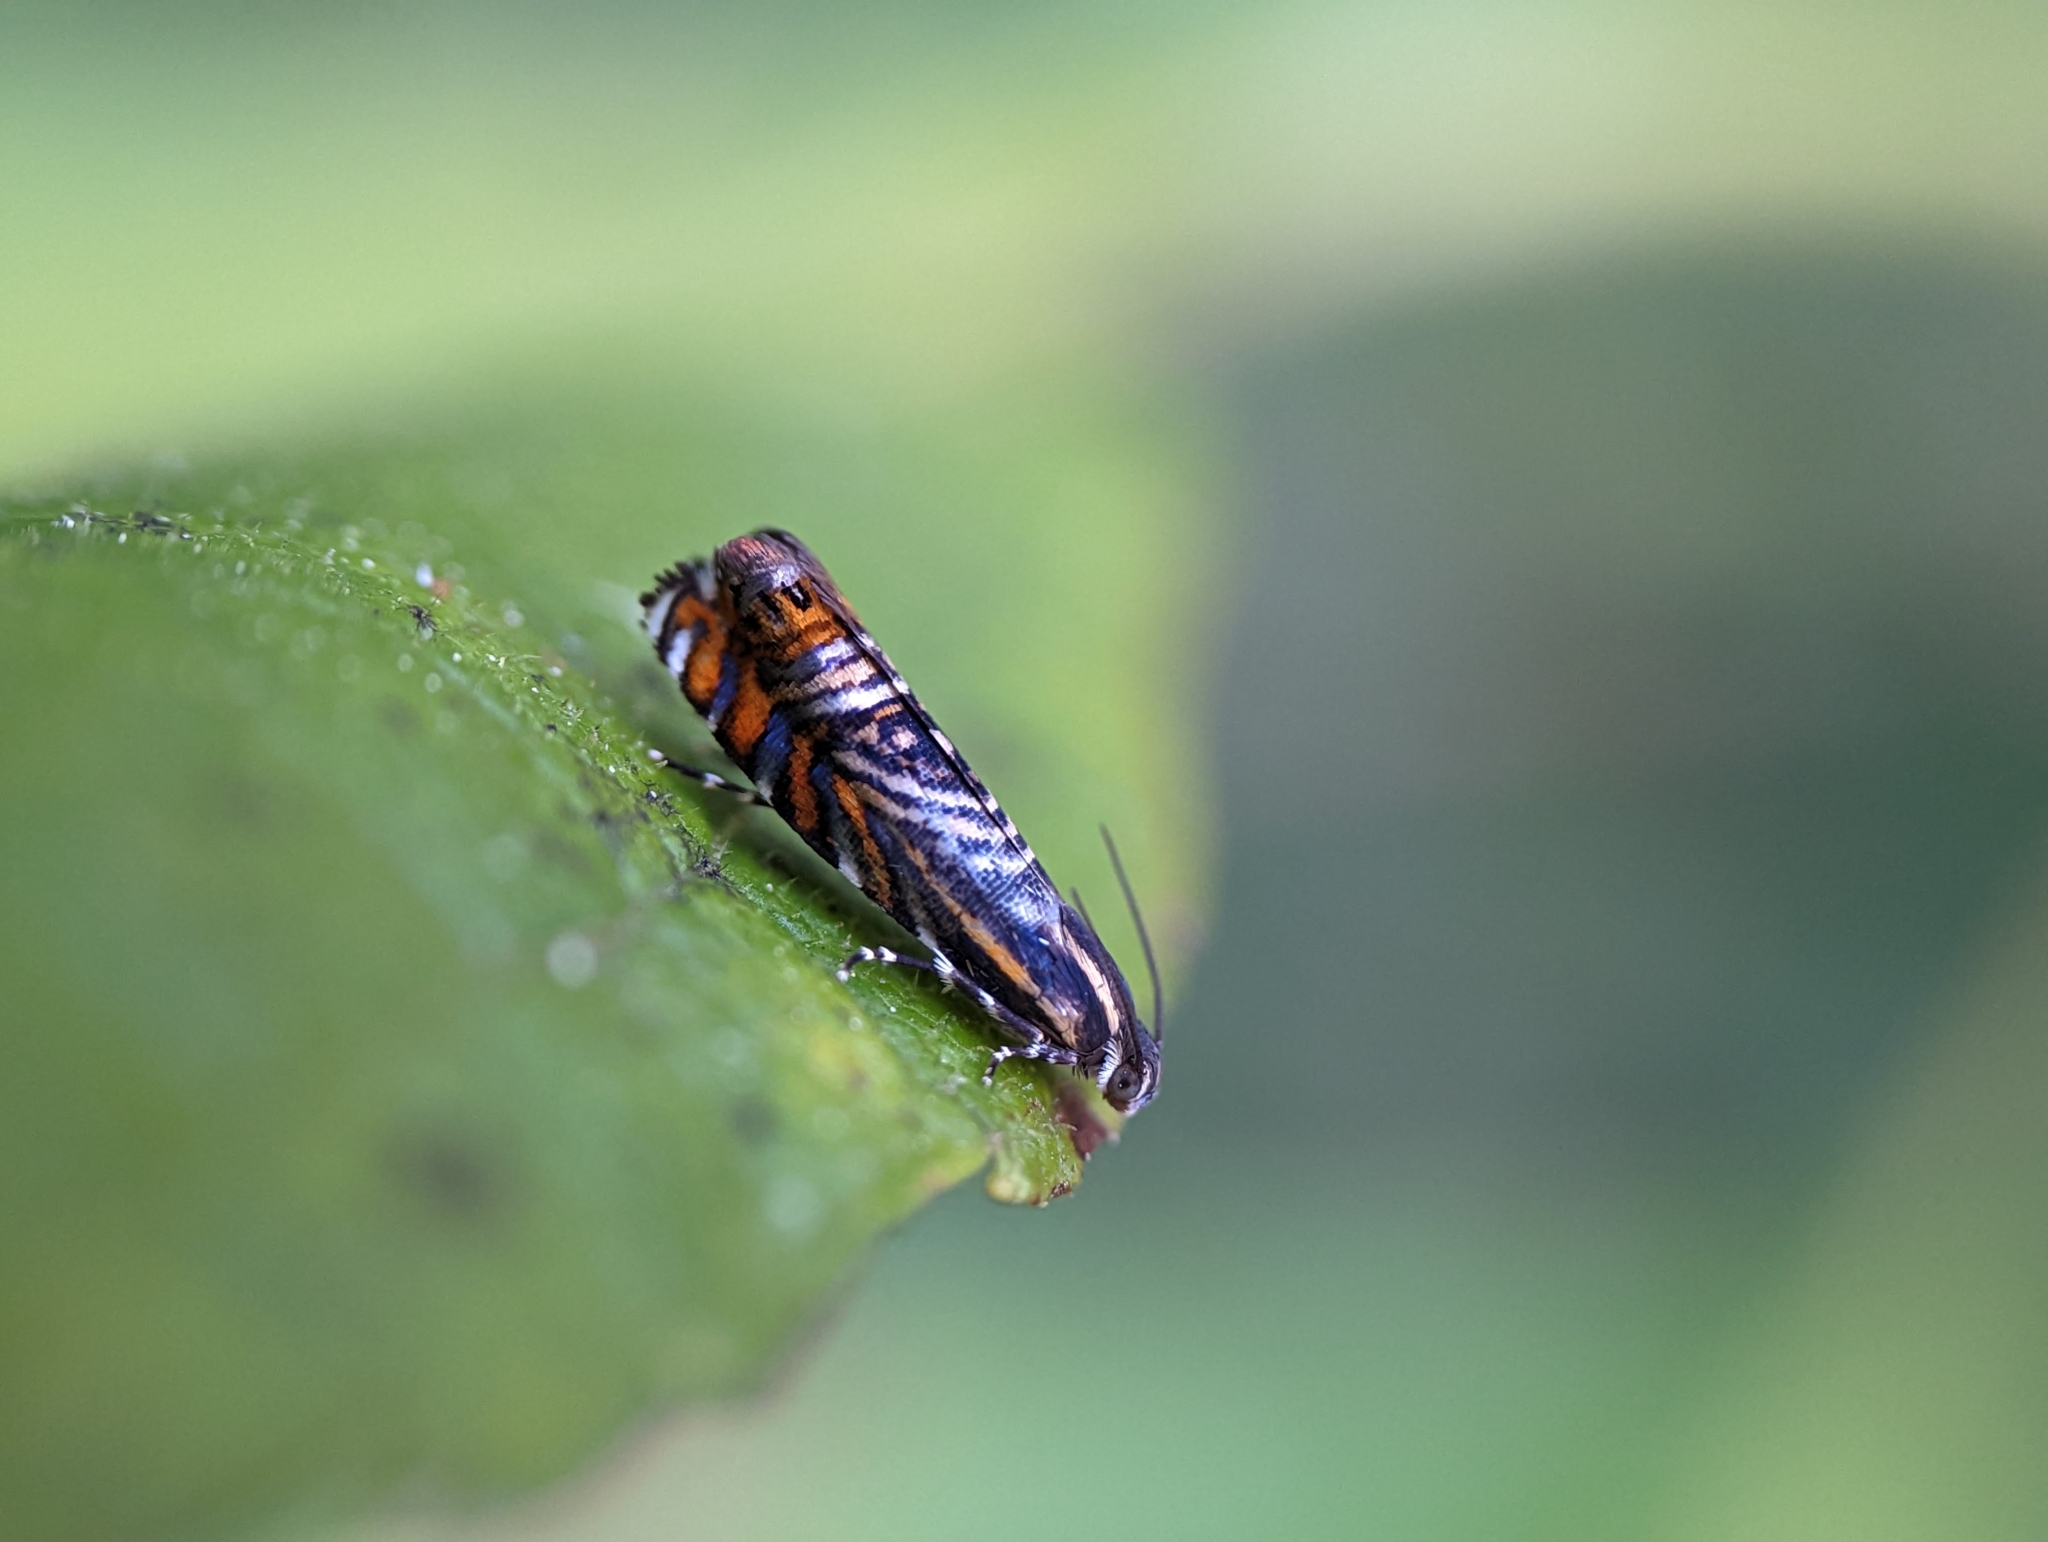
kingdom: Animalia
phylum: Arthropoda
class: Insecta
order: Lepidoptera
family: Tortricidae
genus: Thaumatographa
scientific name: Thaumatographa jonesi
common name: Psychedelic jones moth
